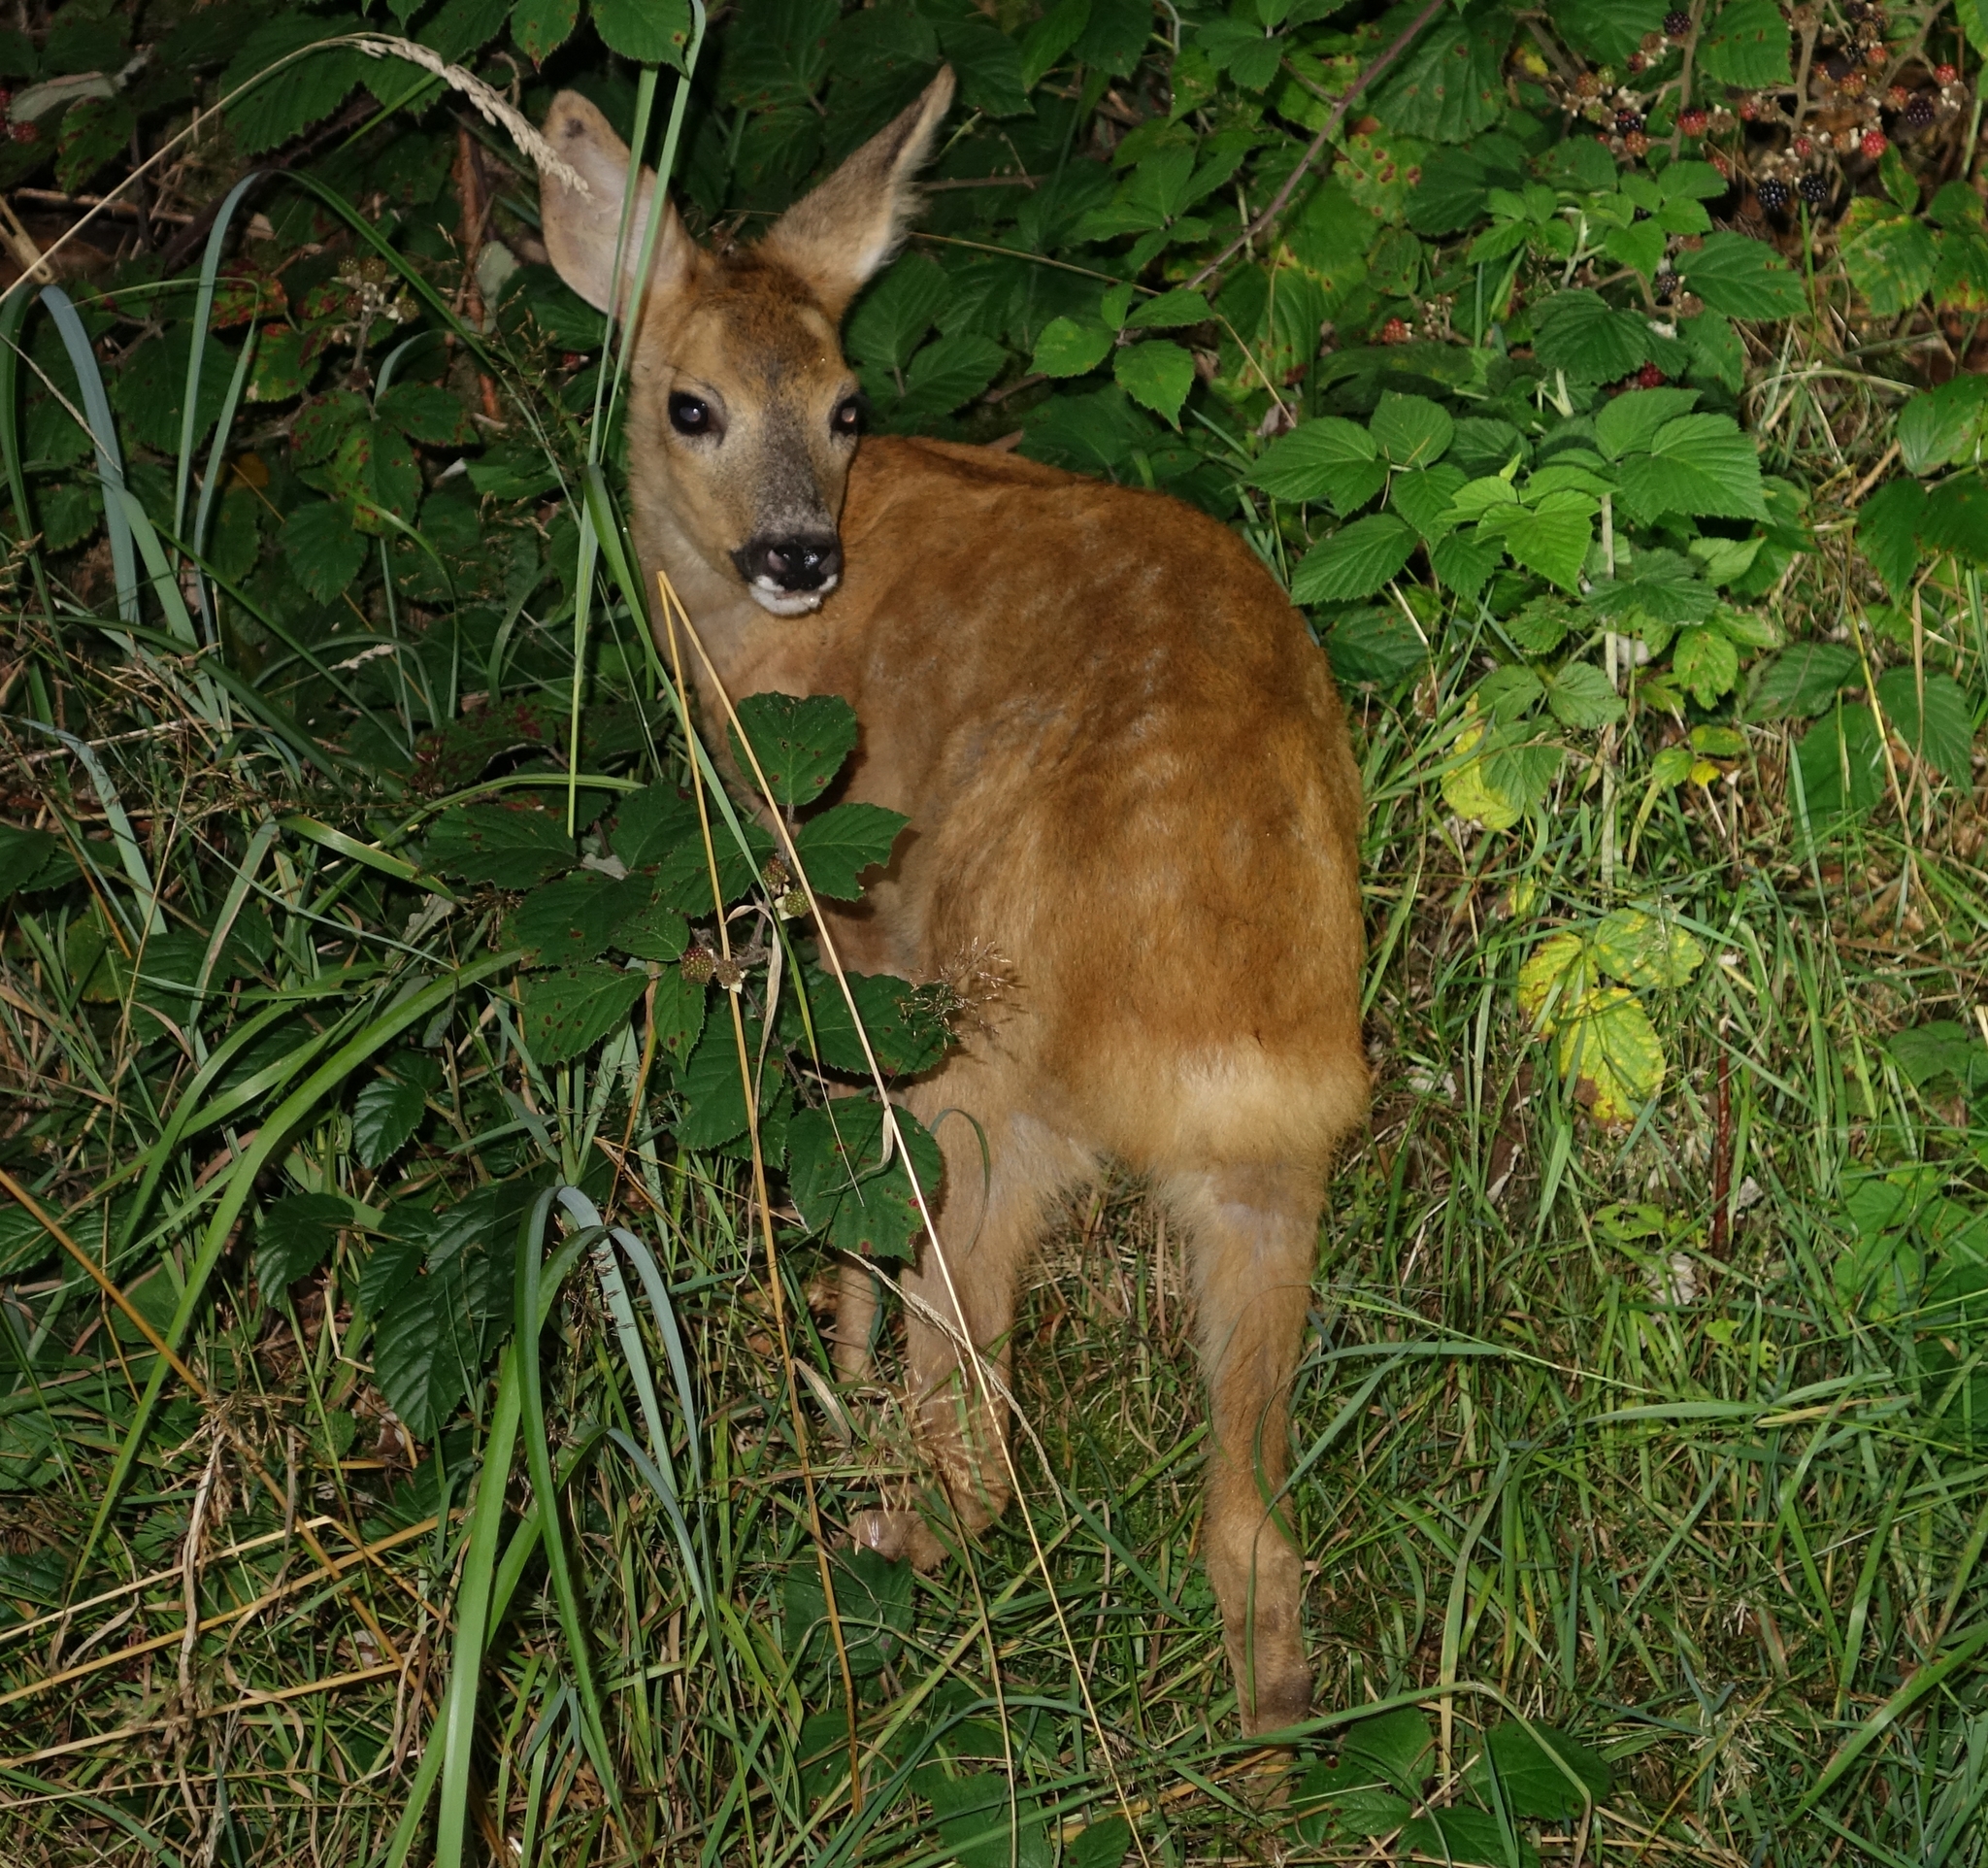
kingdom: Animalia
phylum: Chordata
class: Mammalia
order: Artiodactyla
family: Cervidae
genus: Capreolus
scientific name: Capreolus capreolus
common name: Western roe deer
